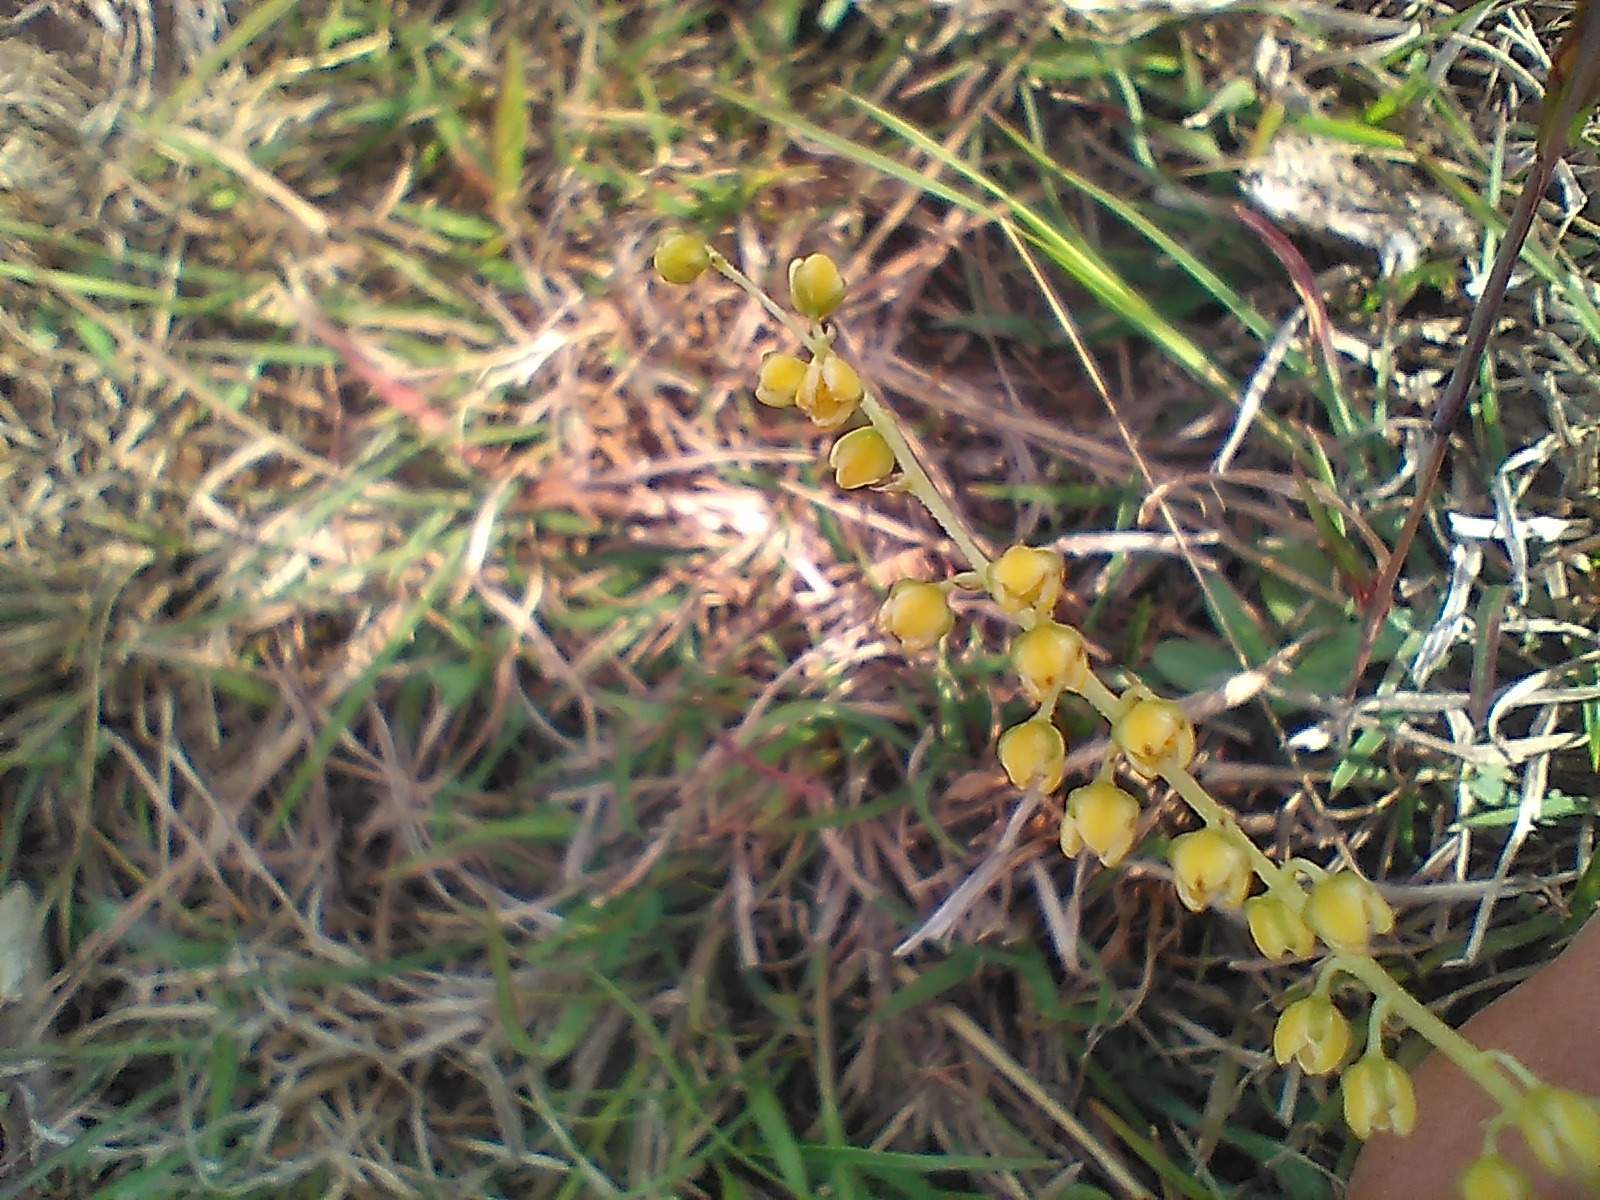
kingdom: Plantae
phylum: Tracheophyta
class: Liliopsida
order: Asparagales
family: Asparagaceae
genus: Lomandra
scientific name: Lomandra filiformis
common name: Wattle mat-rush
